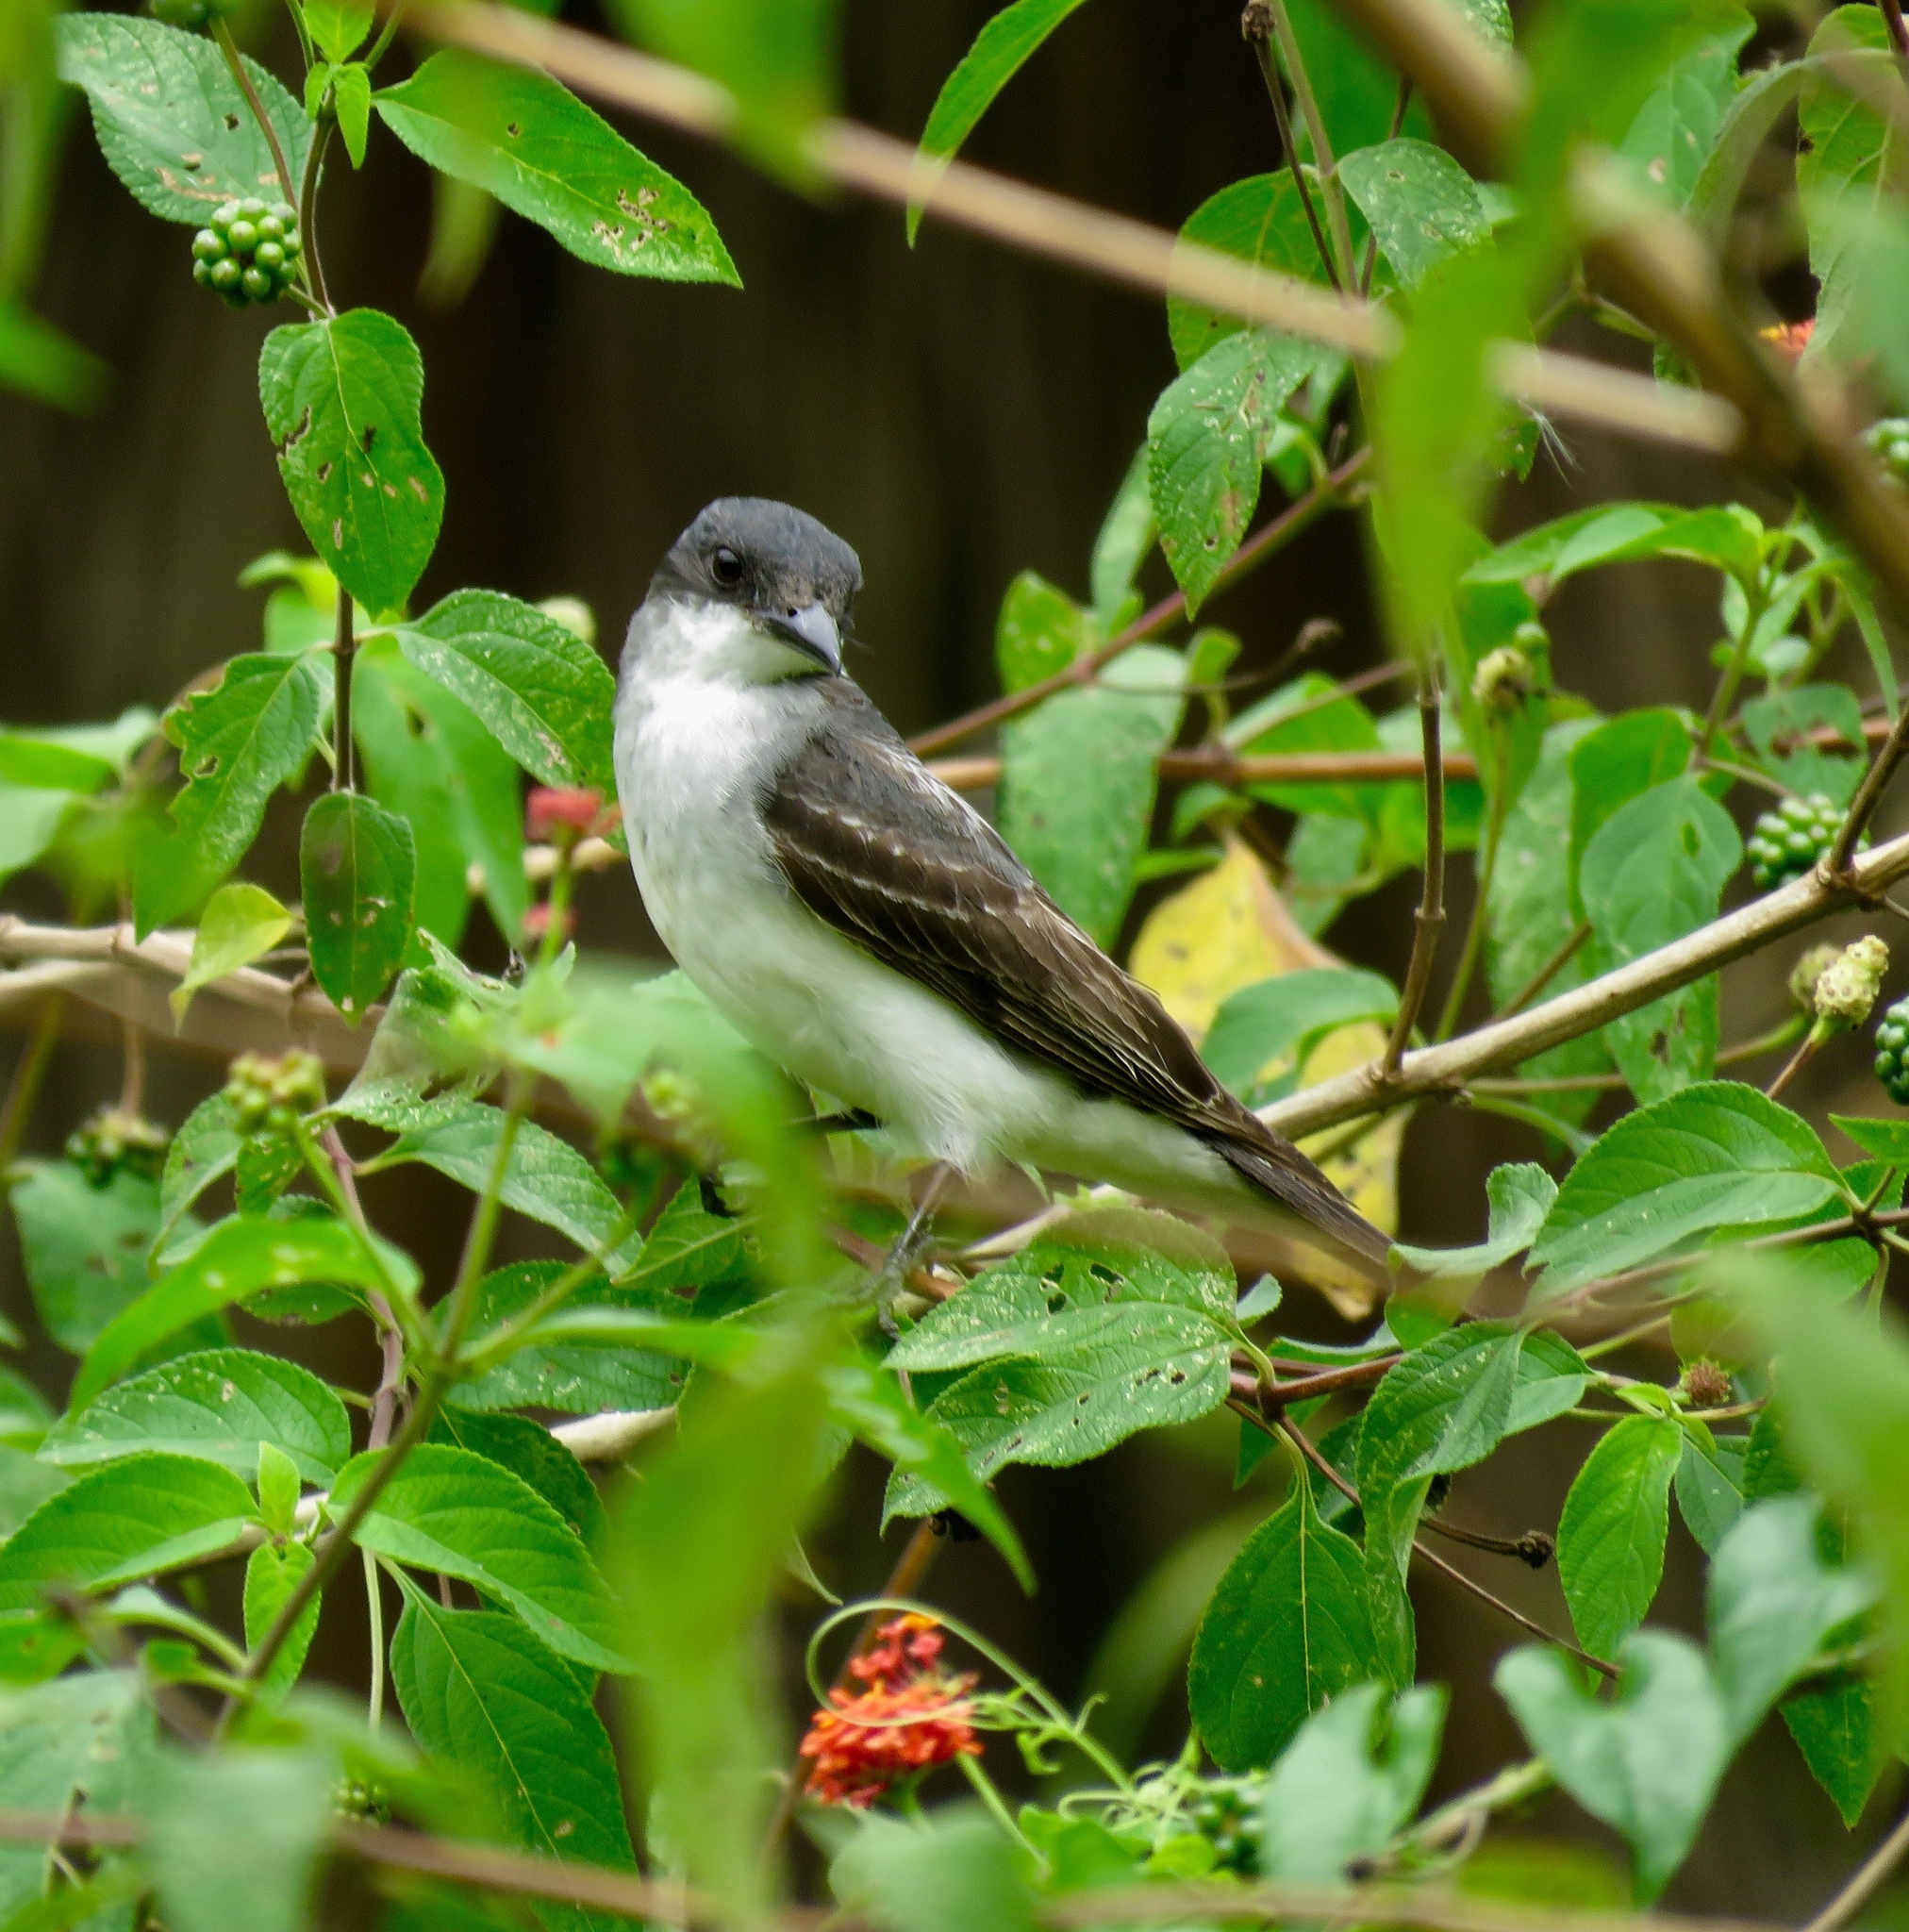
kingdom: Animalia
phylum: Chordata
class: Aves
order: Passeriformes
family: Tyrannidae
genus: Tyrannus
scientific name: Tyrannus tyrannus
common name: Eastern kingbird
